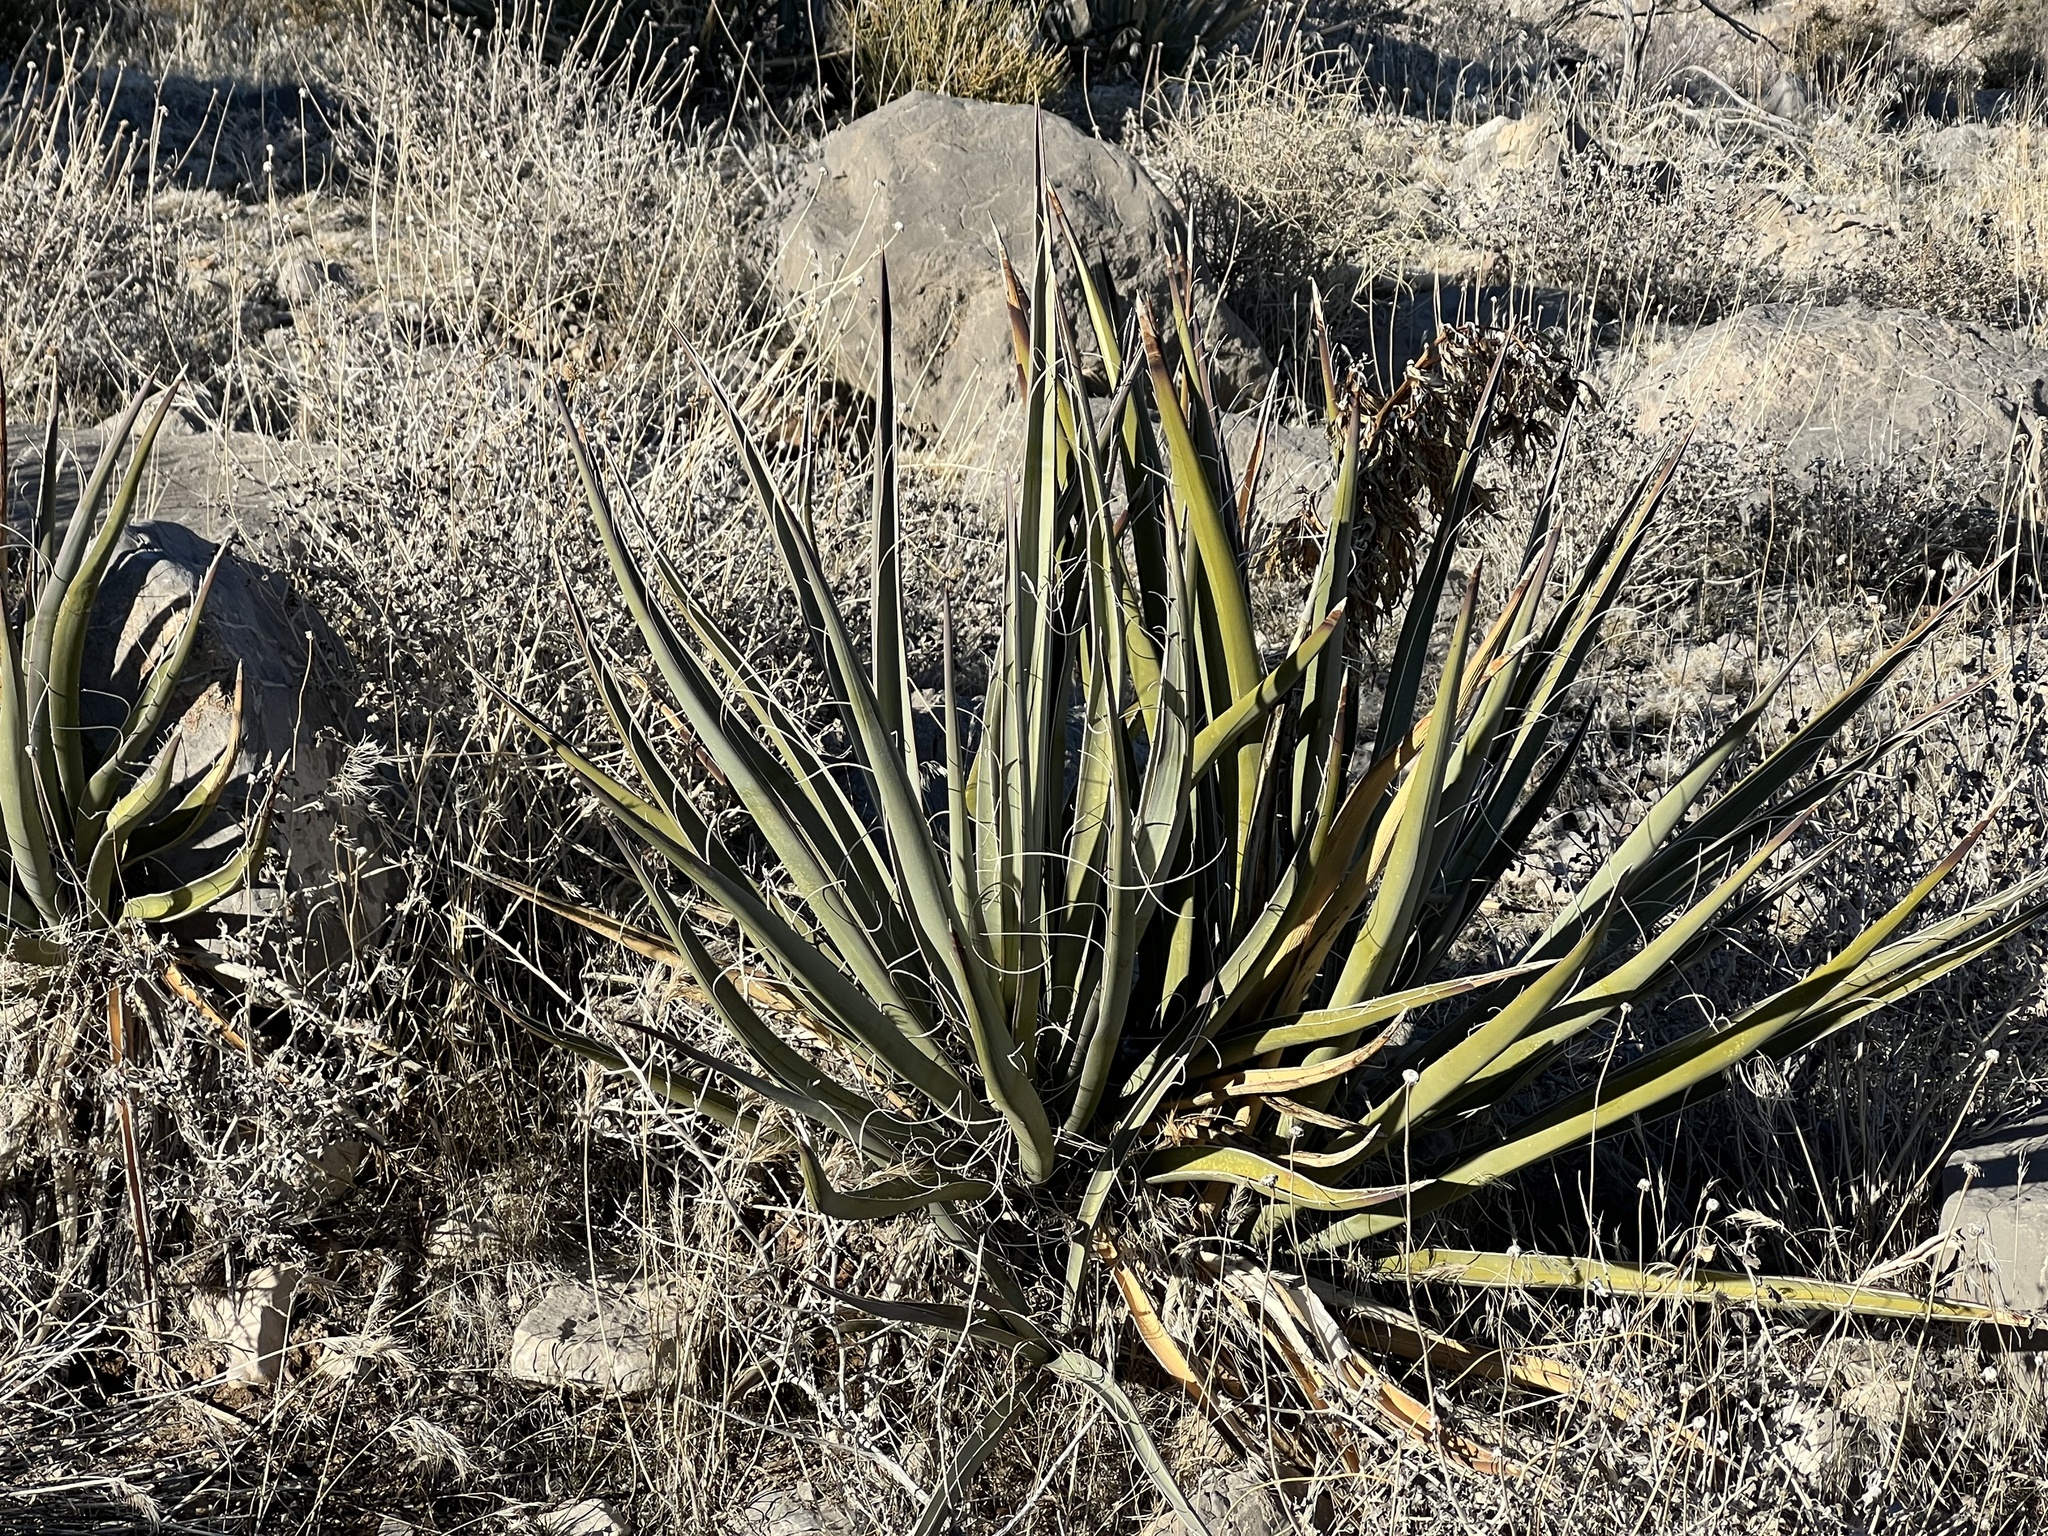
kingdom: Plantae
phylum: Tracheophyta
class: Liliopsida
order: Asparagales
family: Asparagaceae
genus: Yucca
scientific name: Yucca schidigera
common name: Mojave yucca
